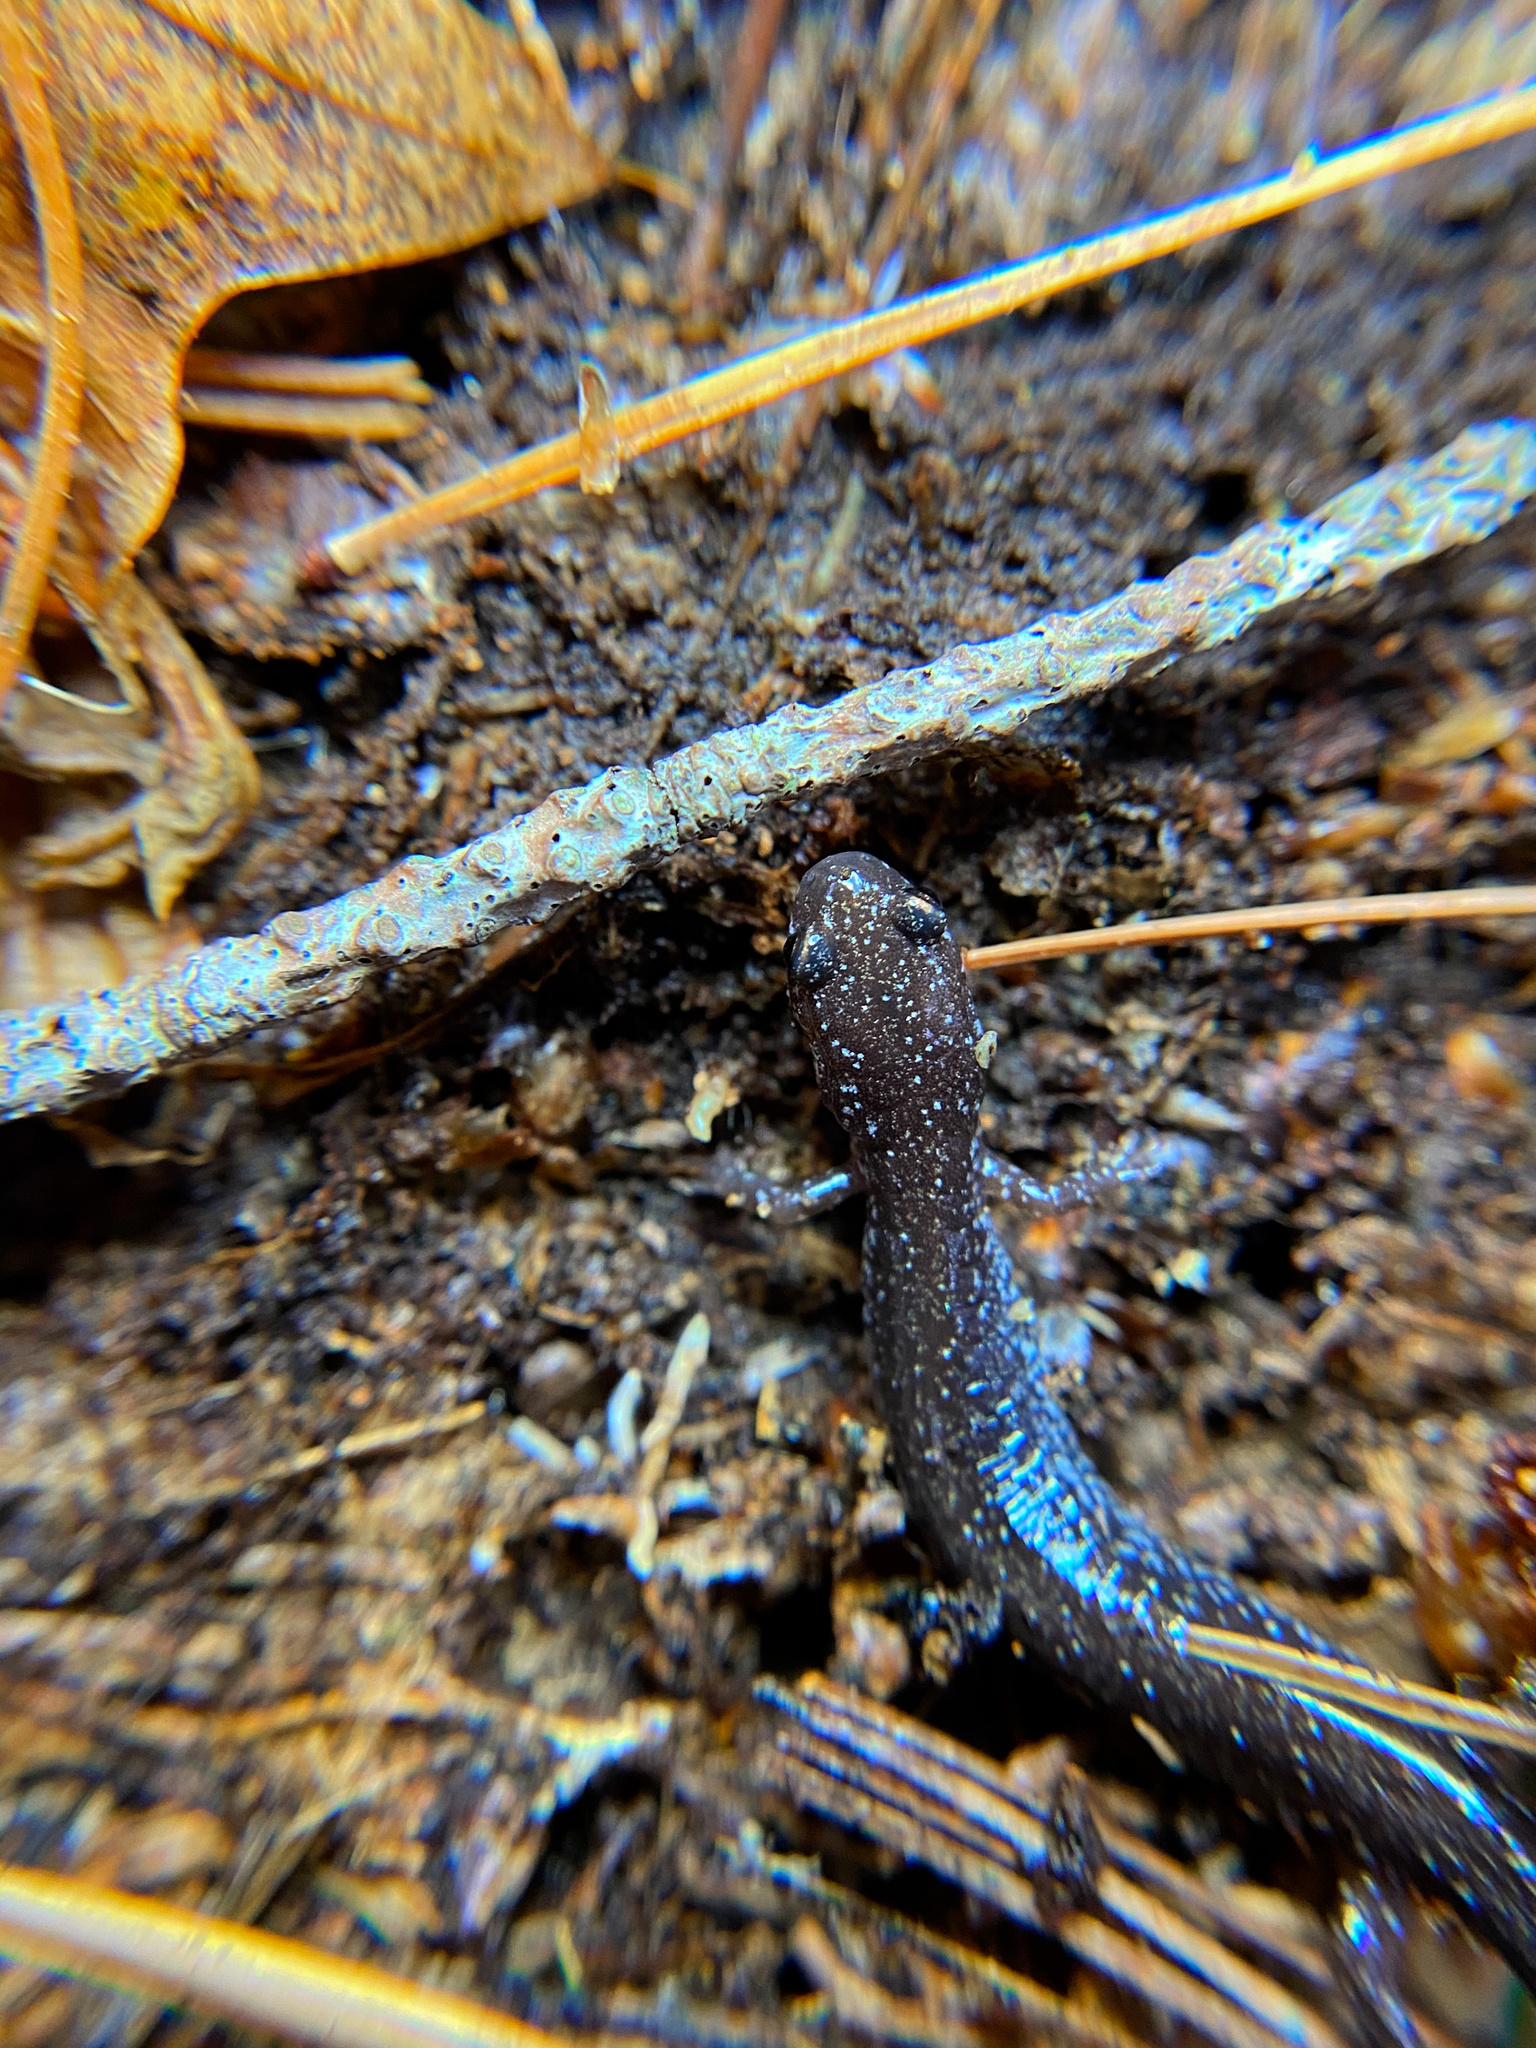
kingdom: Animalia
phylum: Chordata
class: Amphibia
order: Caudata
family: Plethodontidae
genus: Plethodon
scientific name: Plethodon cinereus
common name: Redback salamander
